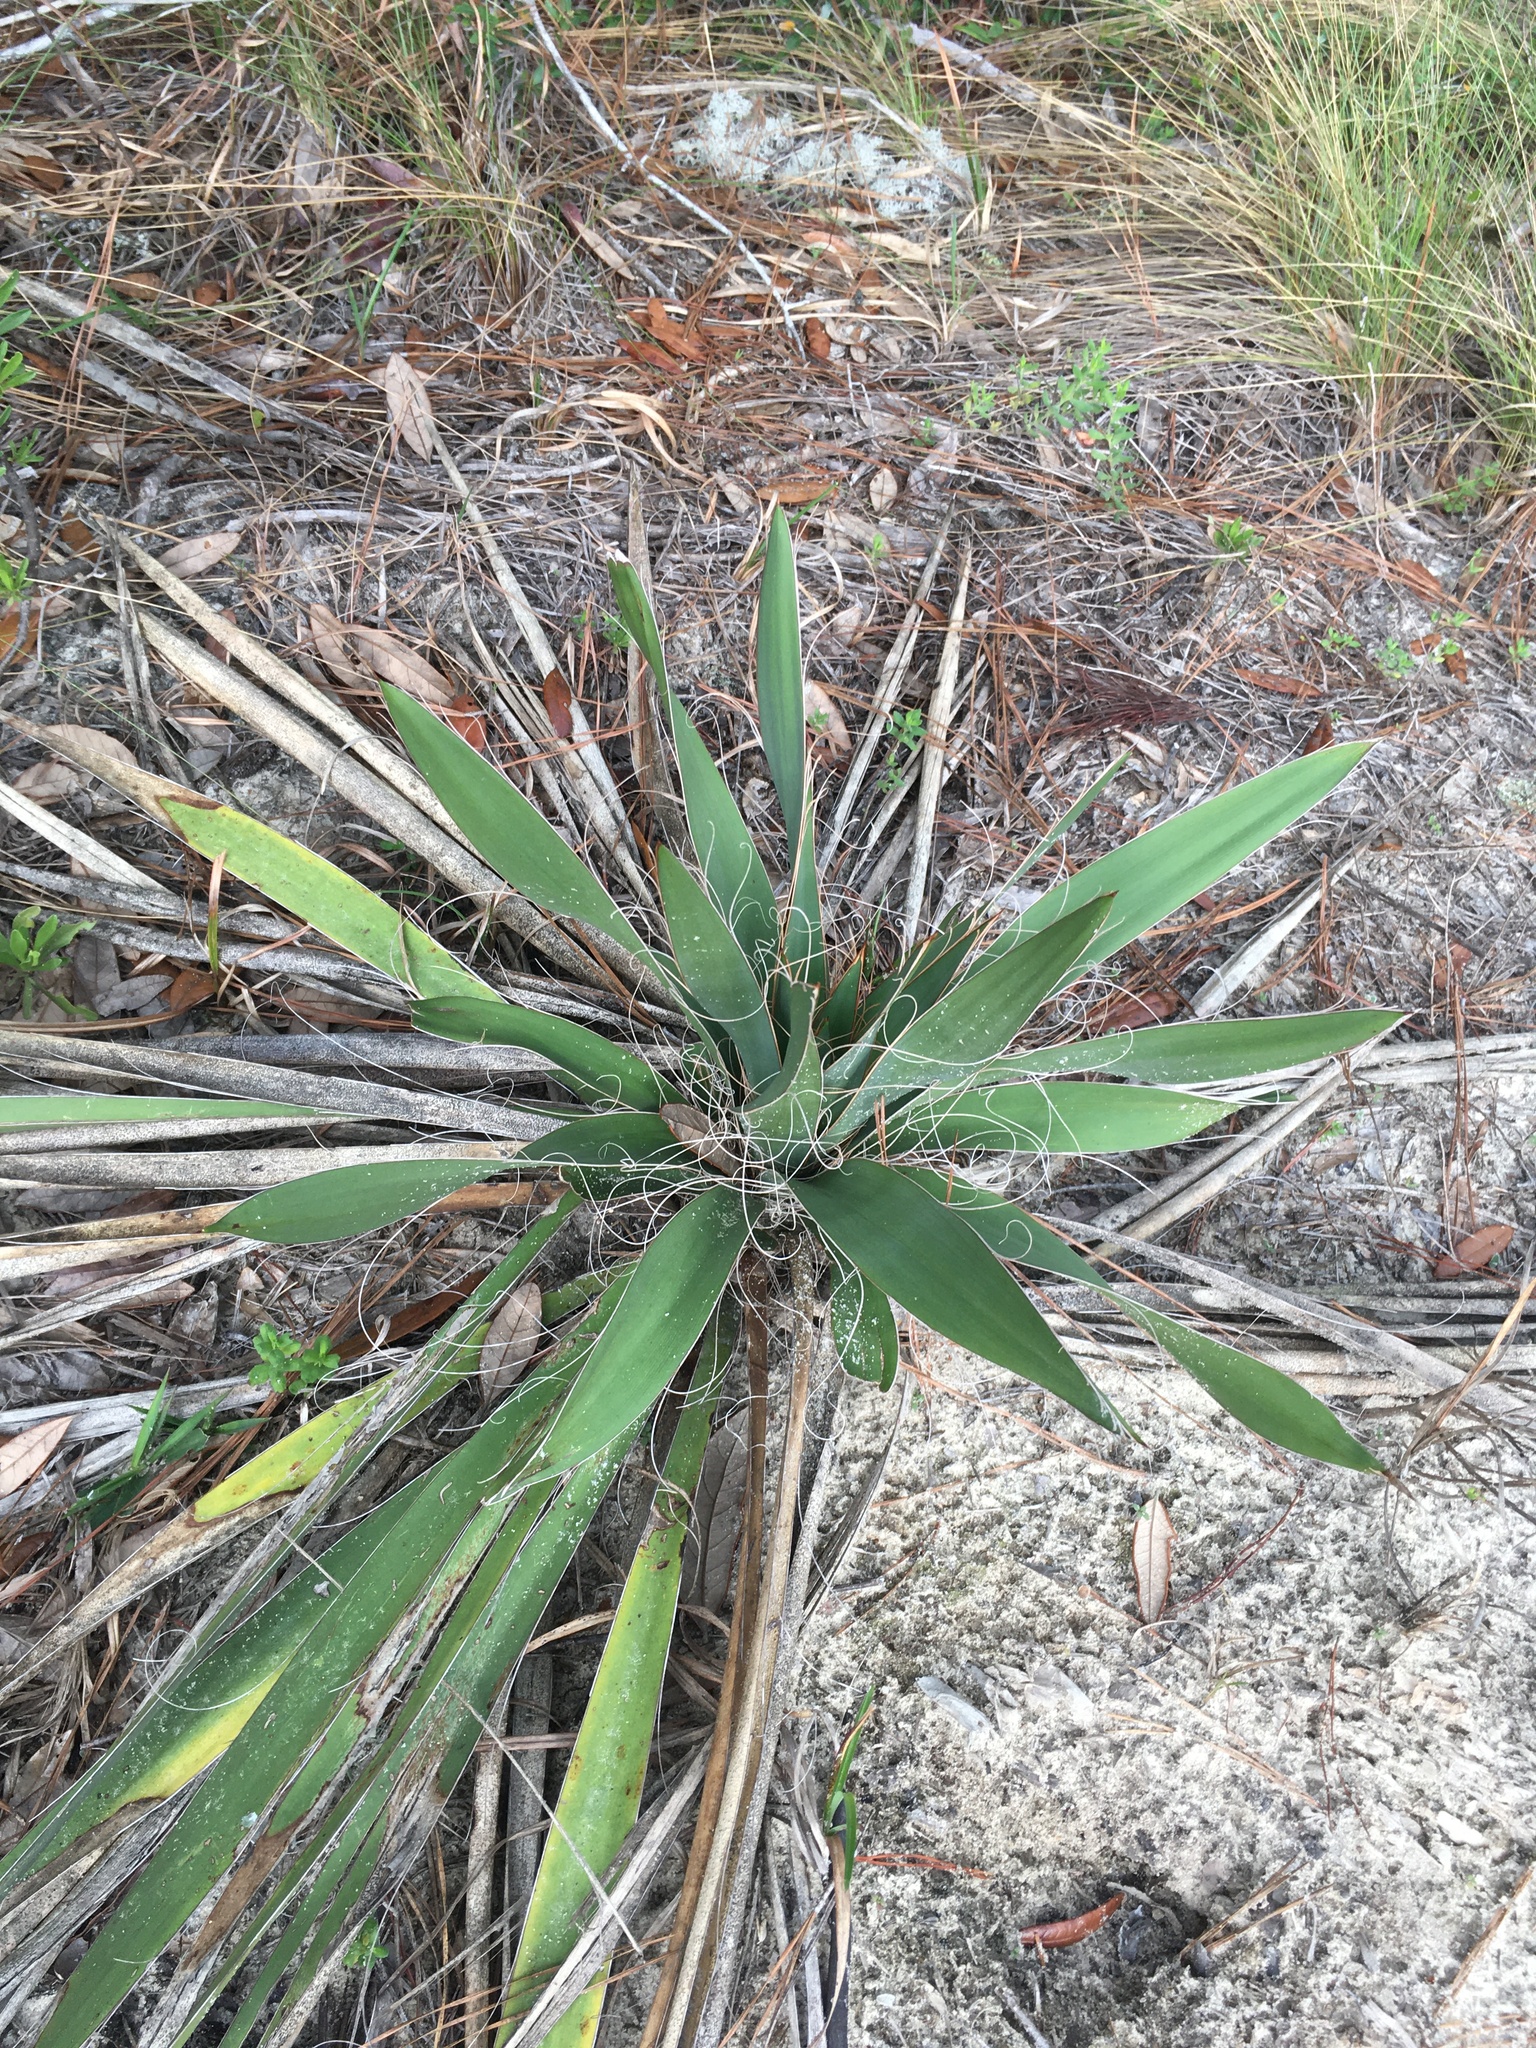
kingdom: Plantae
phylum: Tracheophyta
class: Liliopsida
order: Asparagales
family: Asparagaceae
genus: Yucca
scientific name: Yucca filamentosa
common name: Adam's-needle
